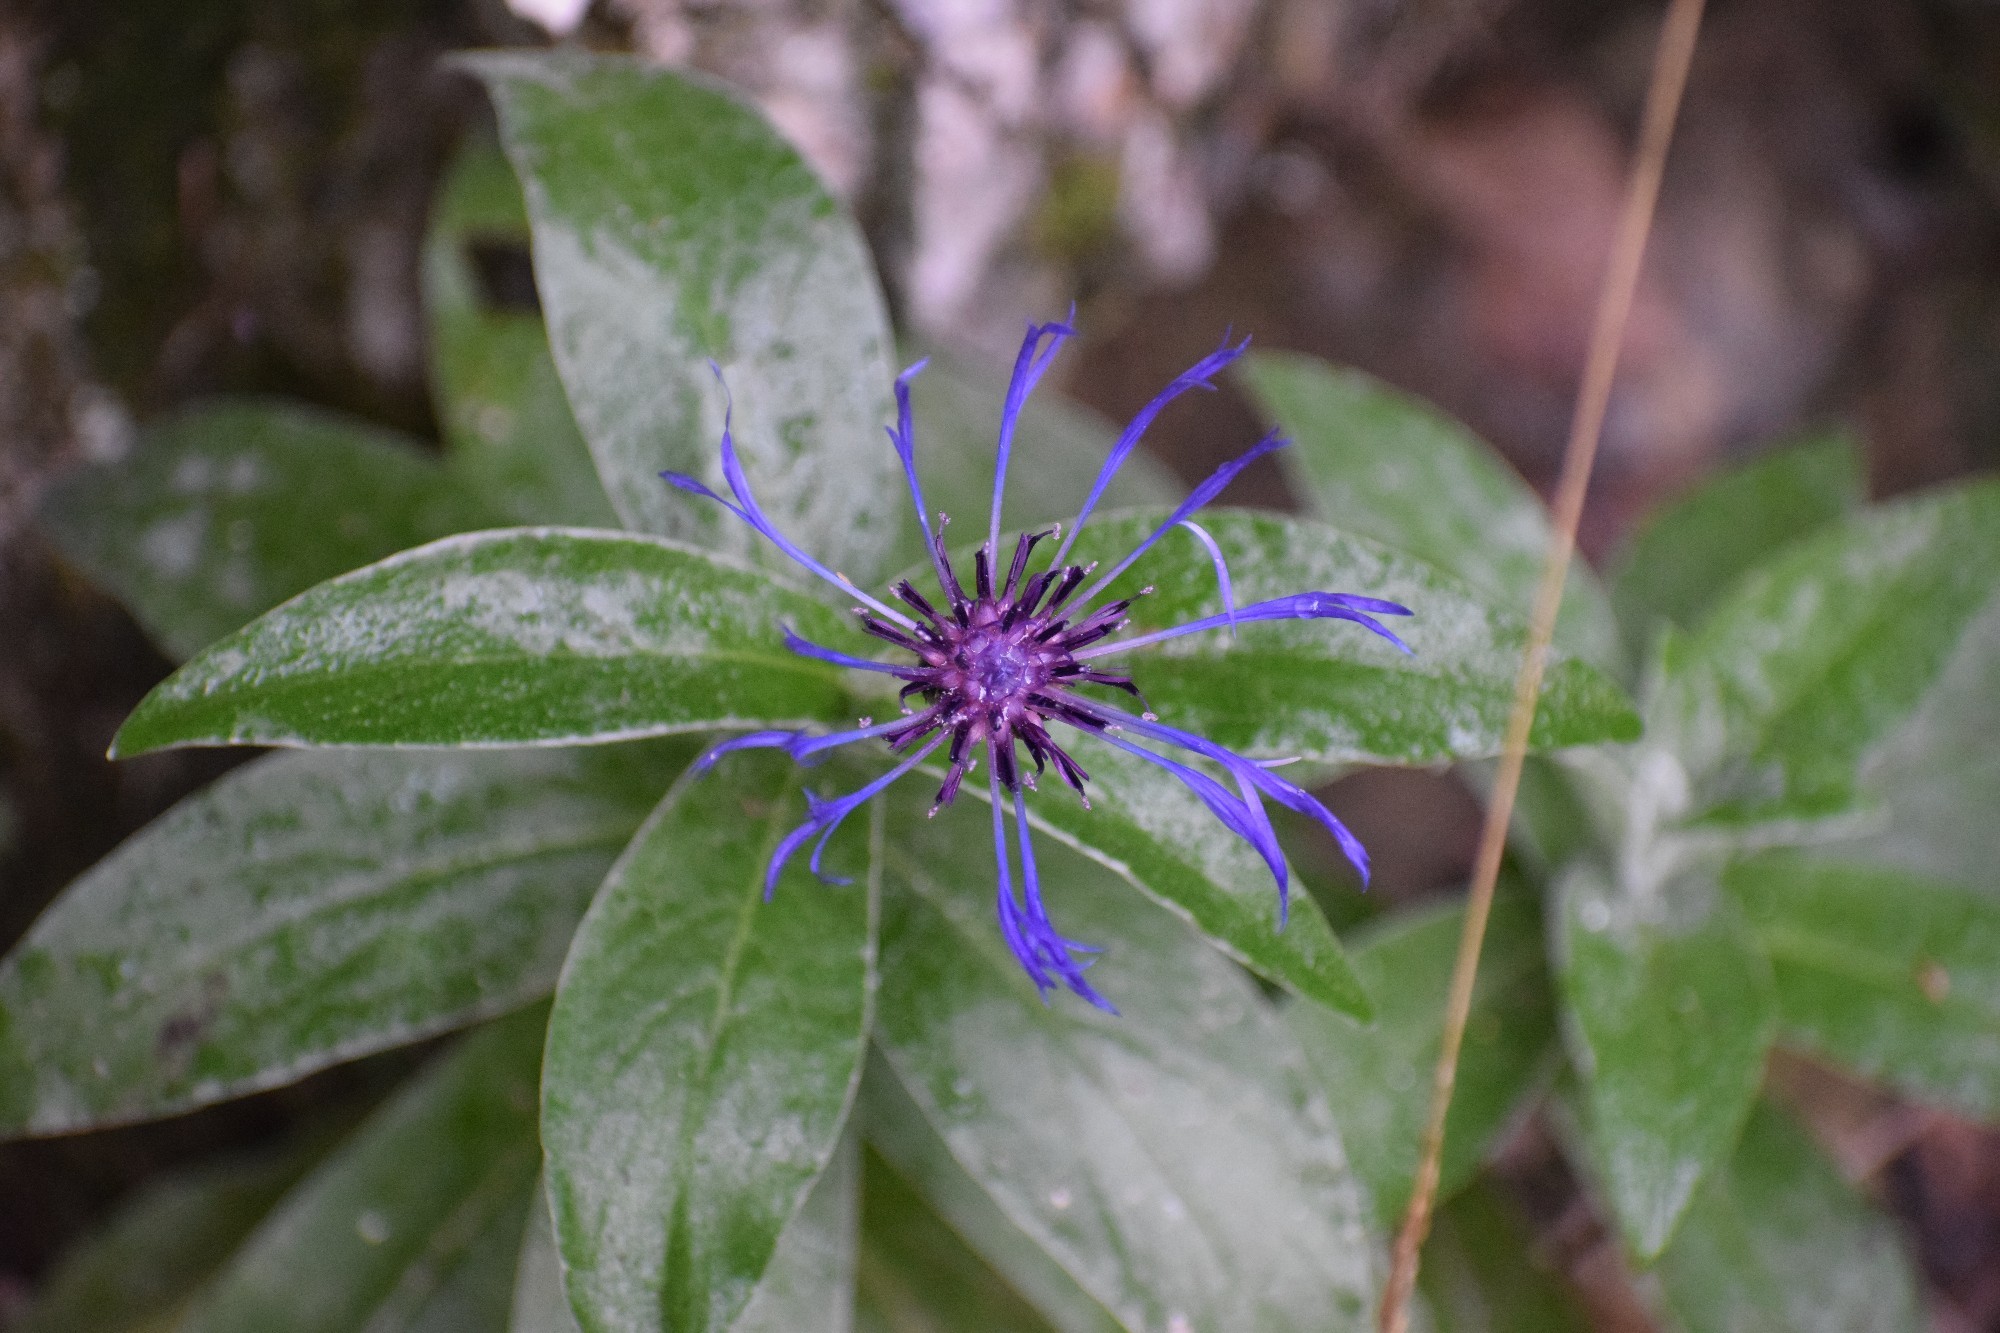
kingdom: Plantae
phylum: Tracheophyta
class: Magnoliopsida
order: Asterales
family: Asteraceae
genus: Centaurea
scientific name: Centaurea montana
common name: Perennial cornflower
